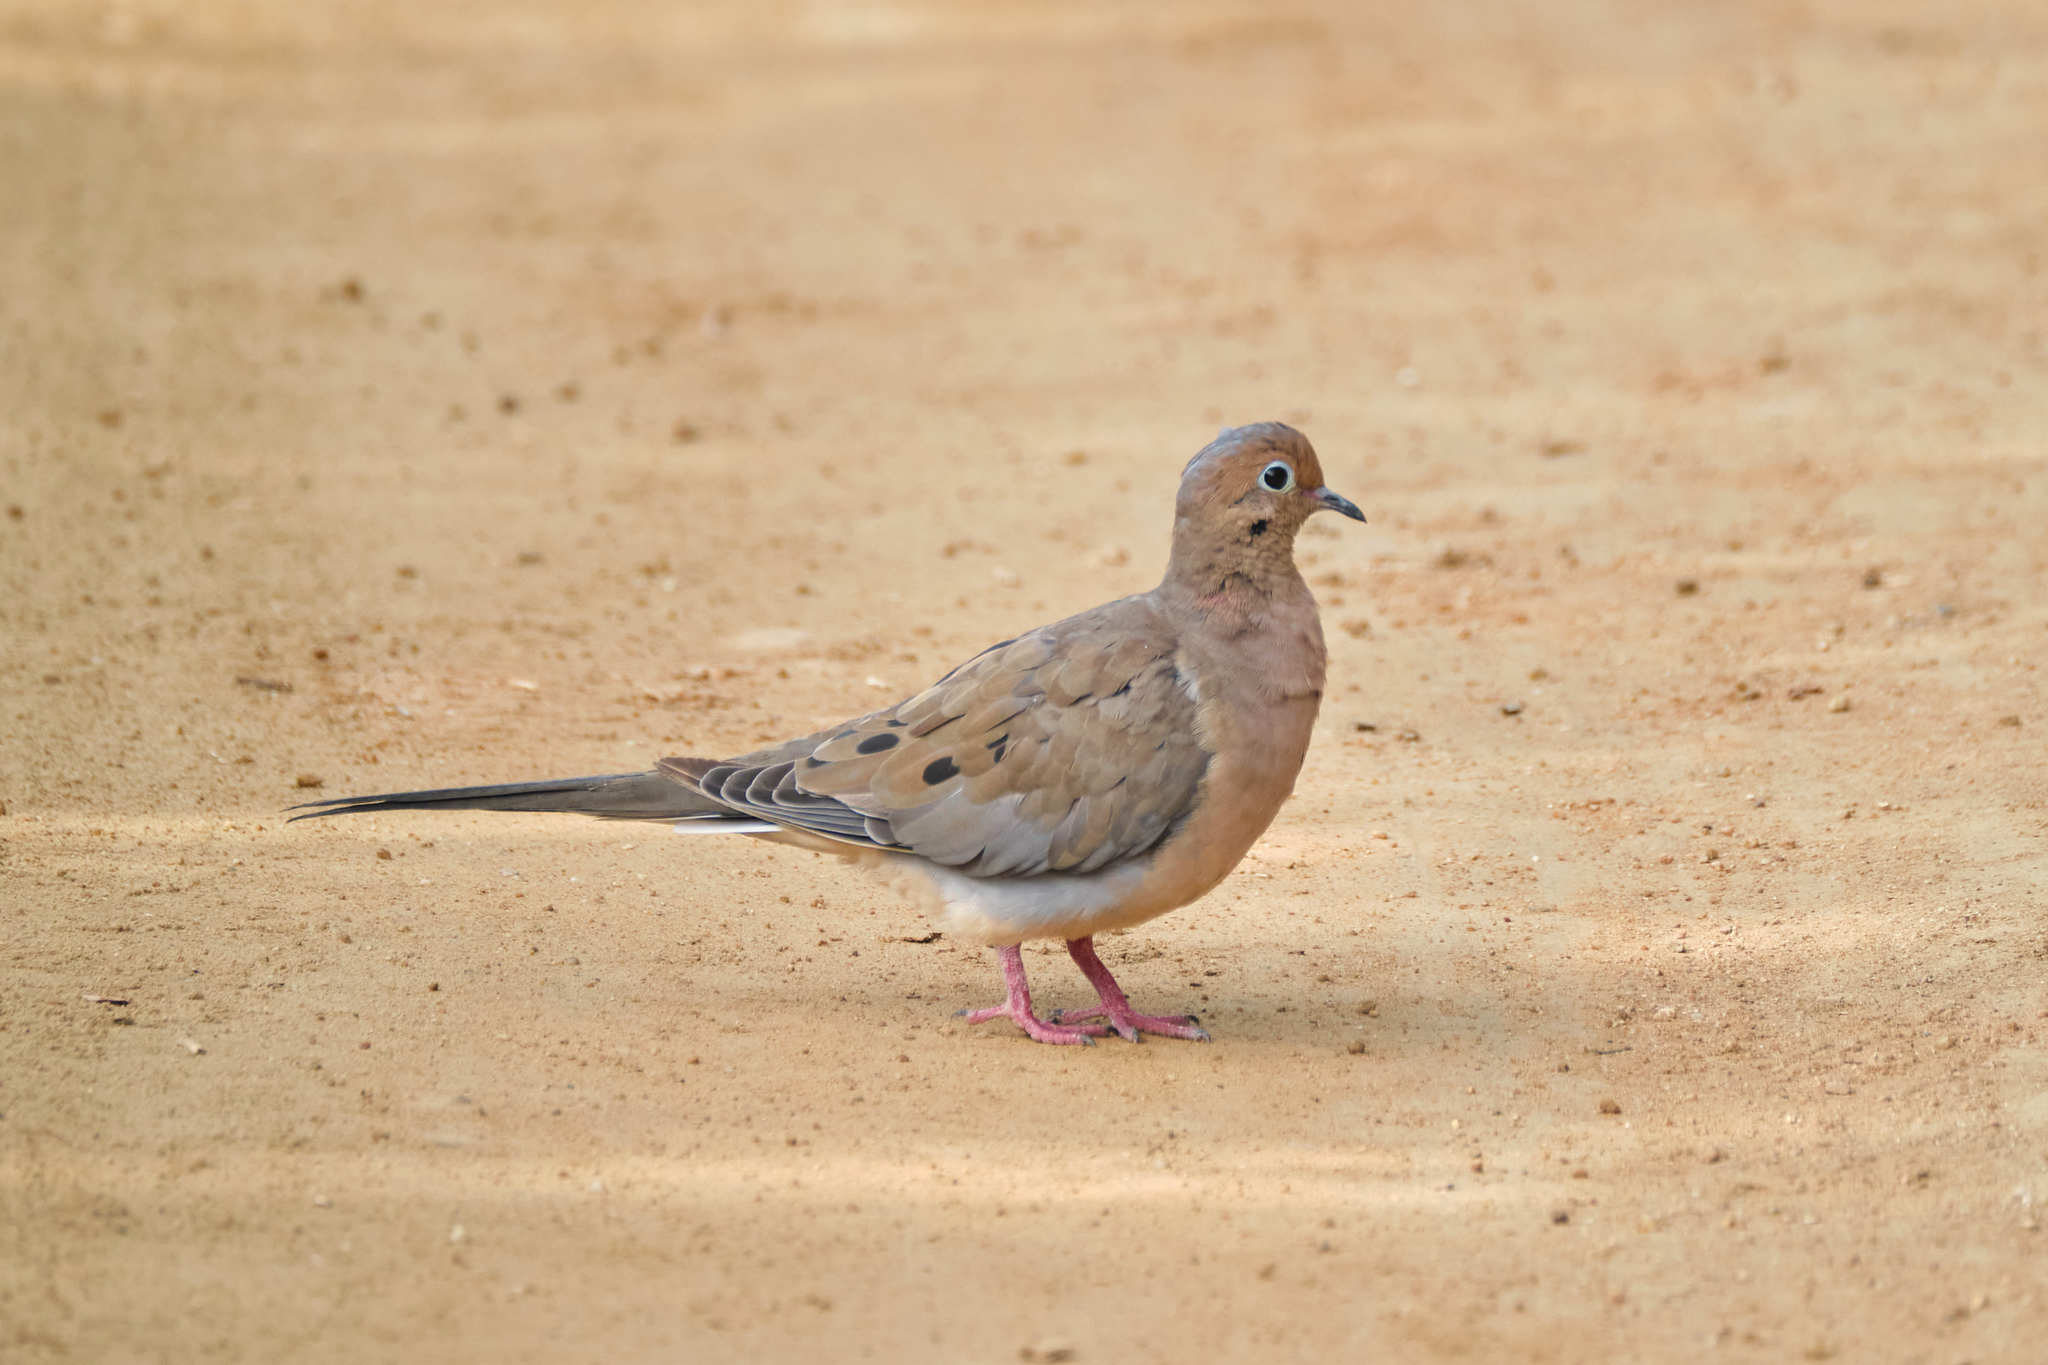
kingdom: Animalia
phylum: Chordata
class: Aves
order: Columbiformes
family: Columbidae
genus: Zenaida
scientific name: Zenaida macroura
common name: Mourning dove
